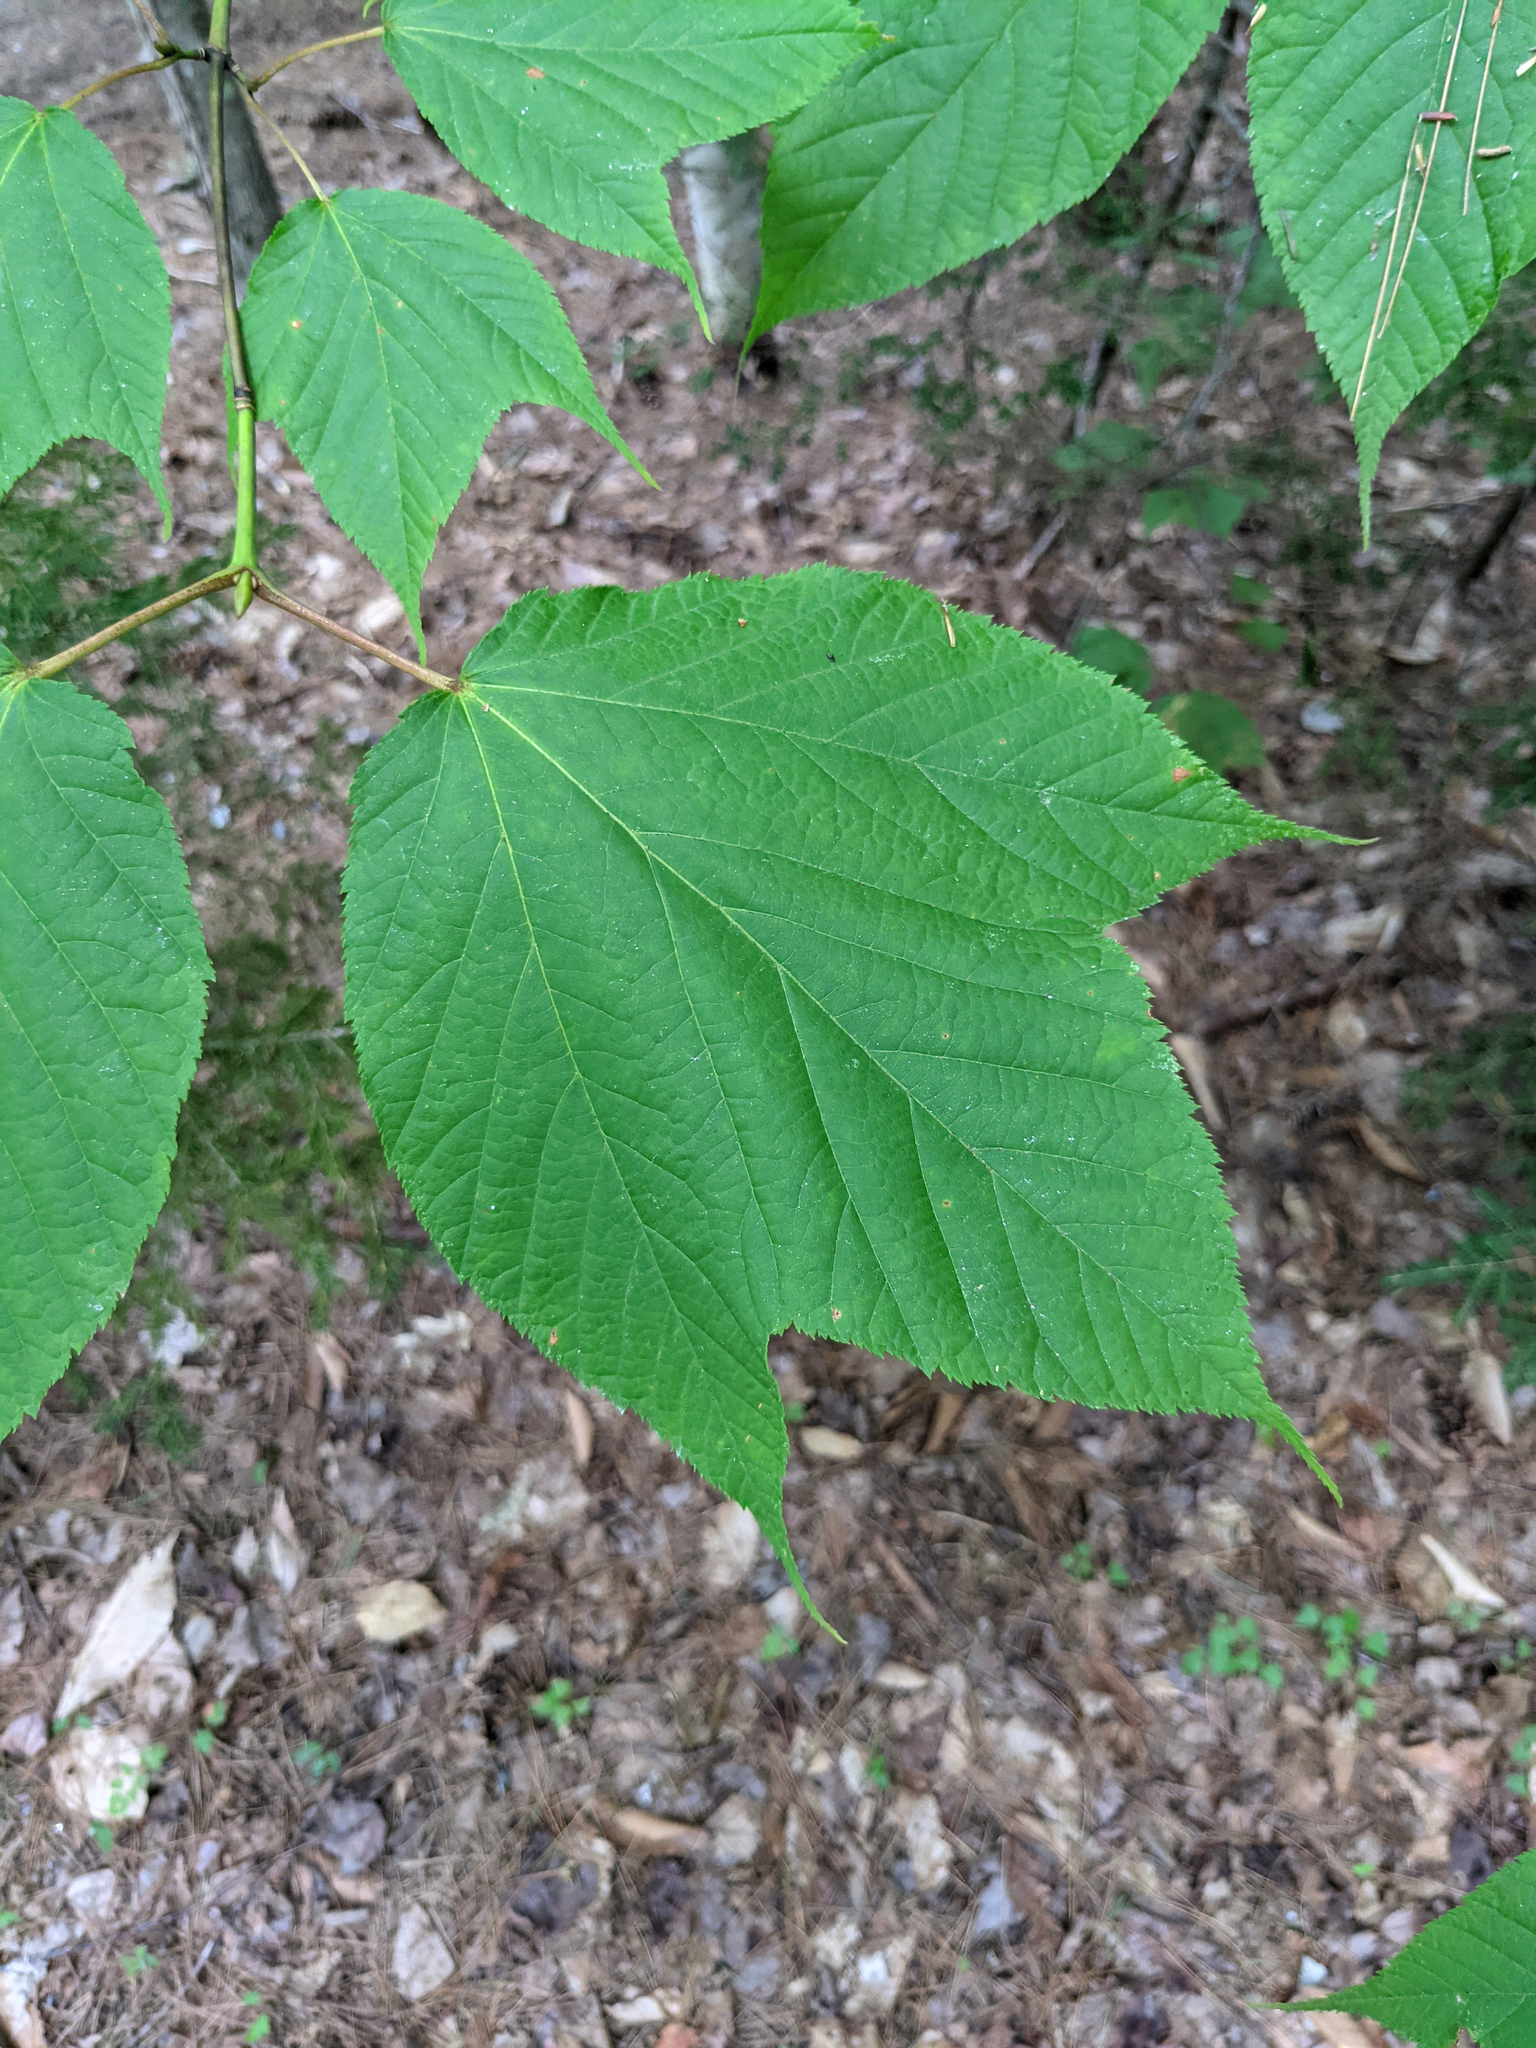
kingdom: Plantae
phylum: Tracheophyta
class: Magnoliopsida
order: Sapindales
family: Sapindaceae
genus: Acer
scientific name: Acer pensylvanicum
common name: Moosewood
